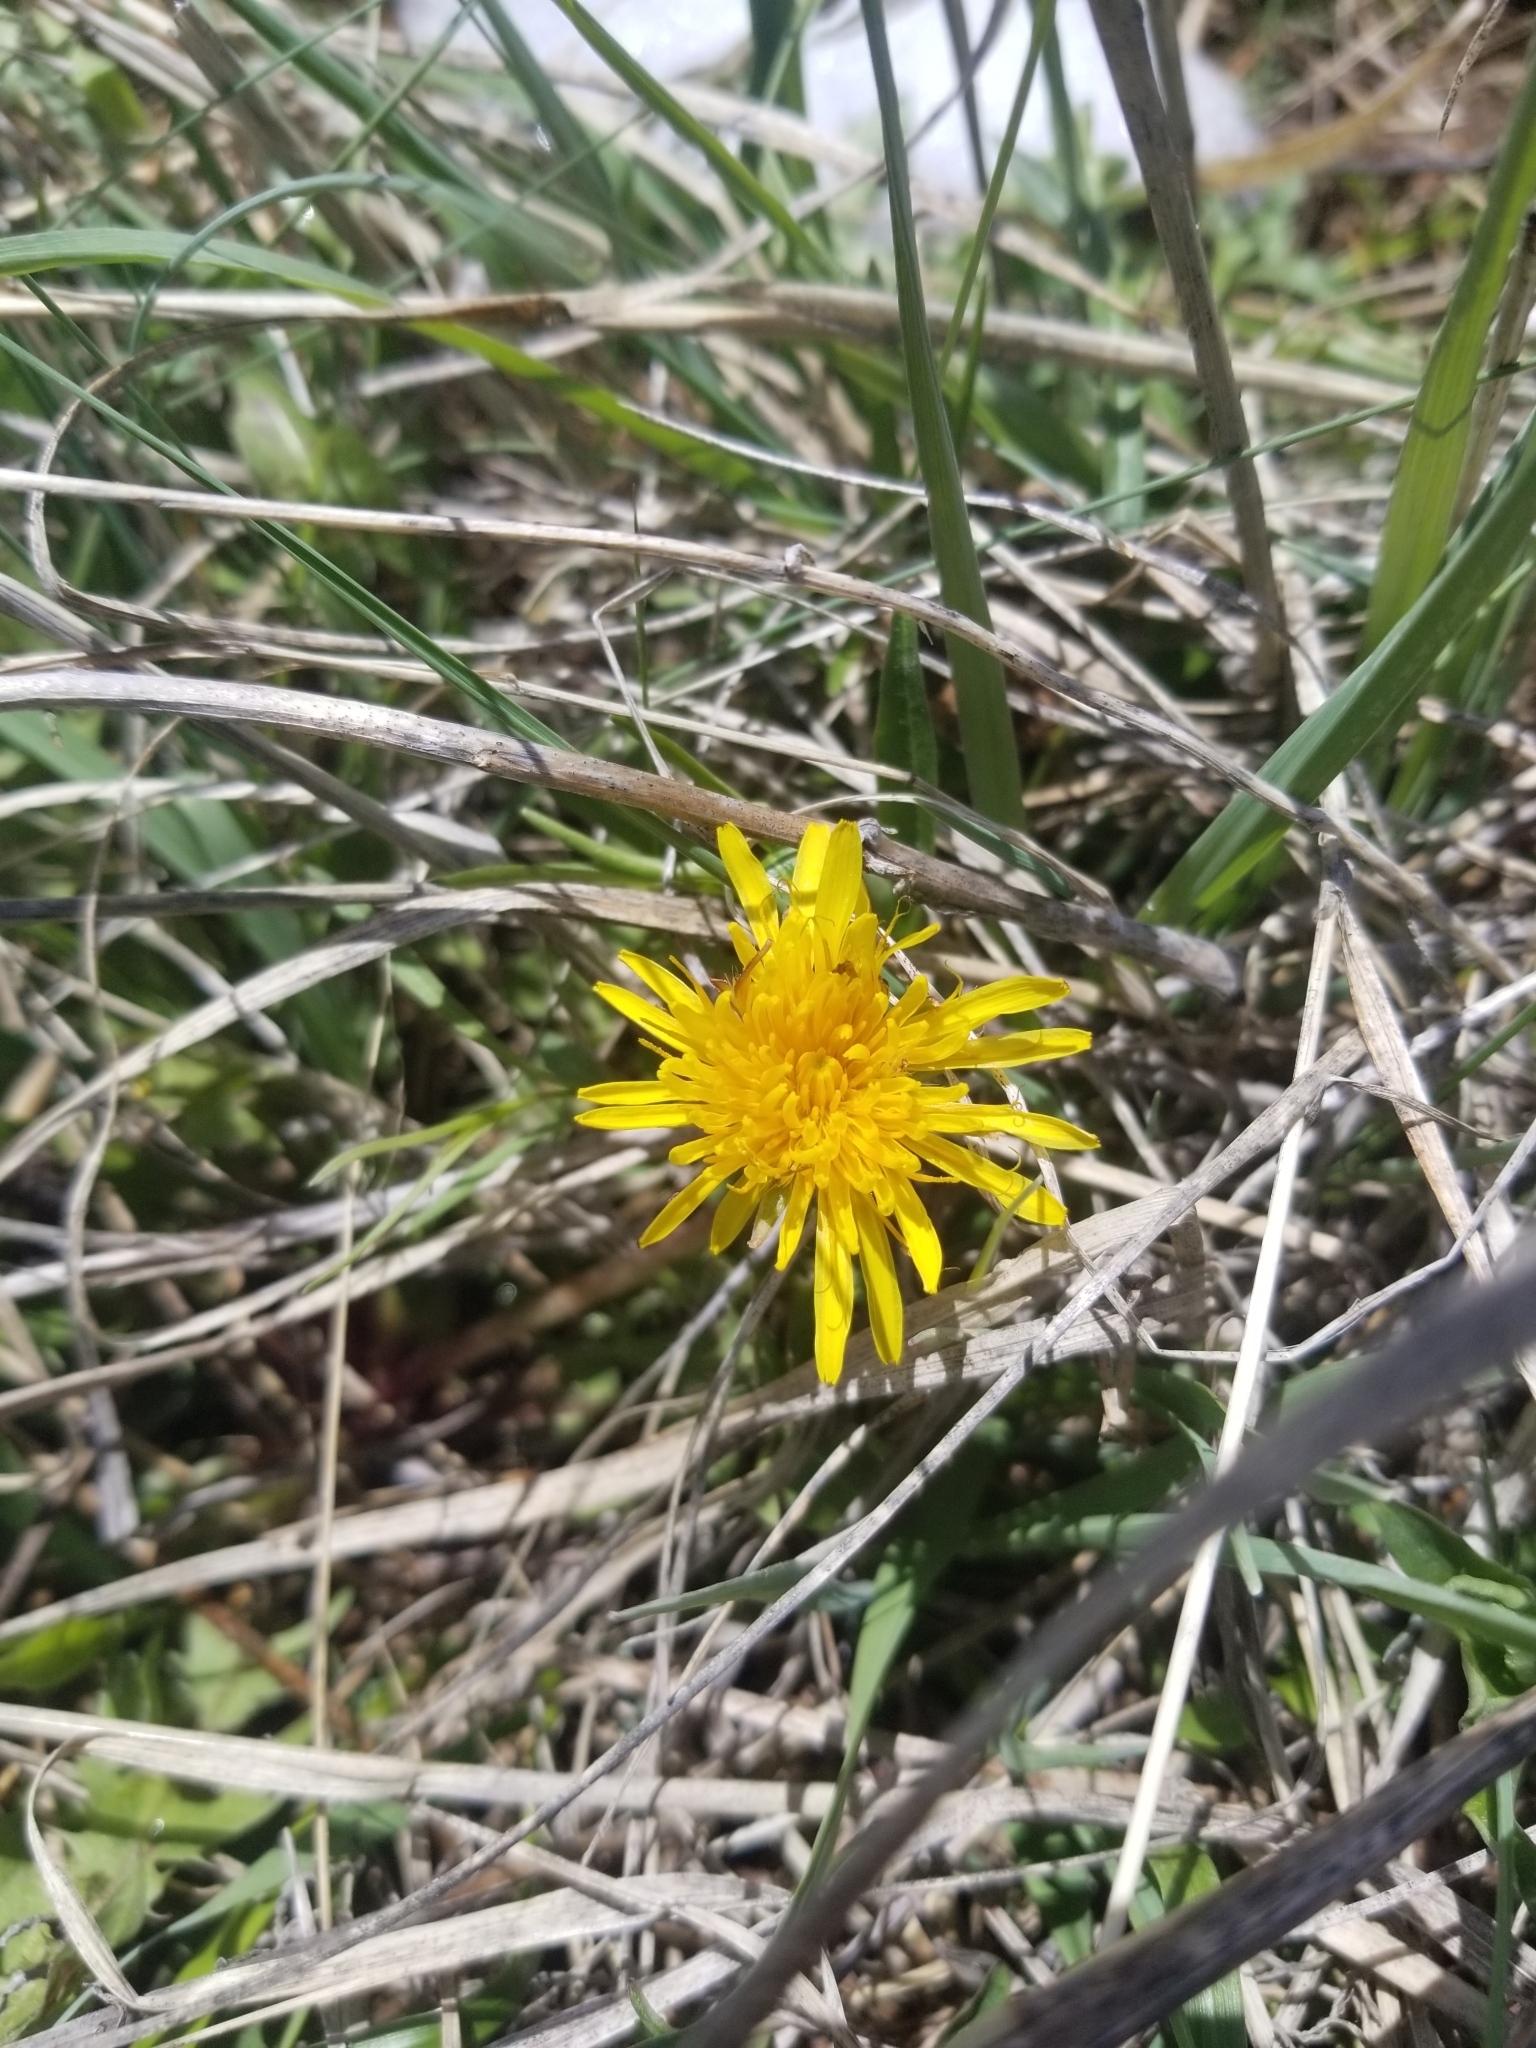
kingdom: Plantae
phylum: Tracheophyta
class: Magnoliopsida
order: Asterales
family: Asteraceae
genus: Taraxacum
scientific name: Taraxacum officinale
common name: Common dandelion
